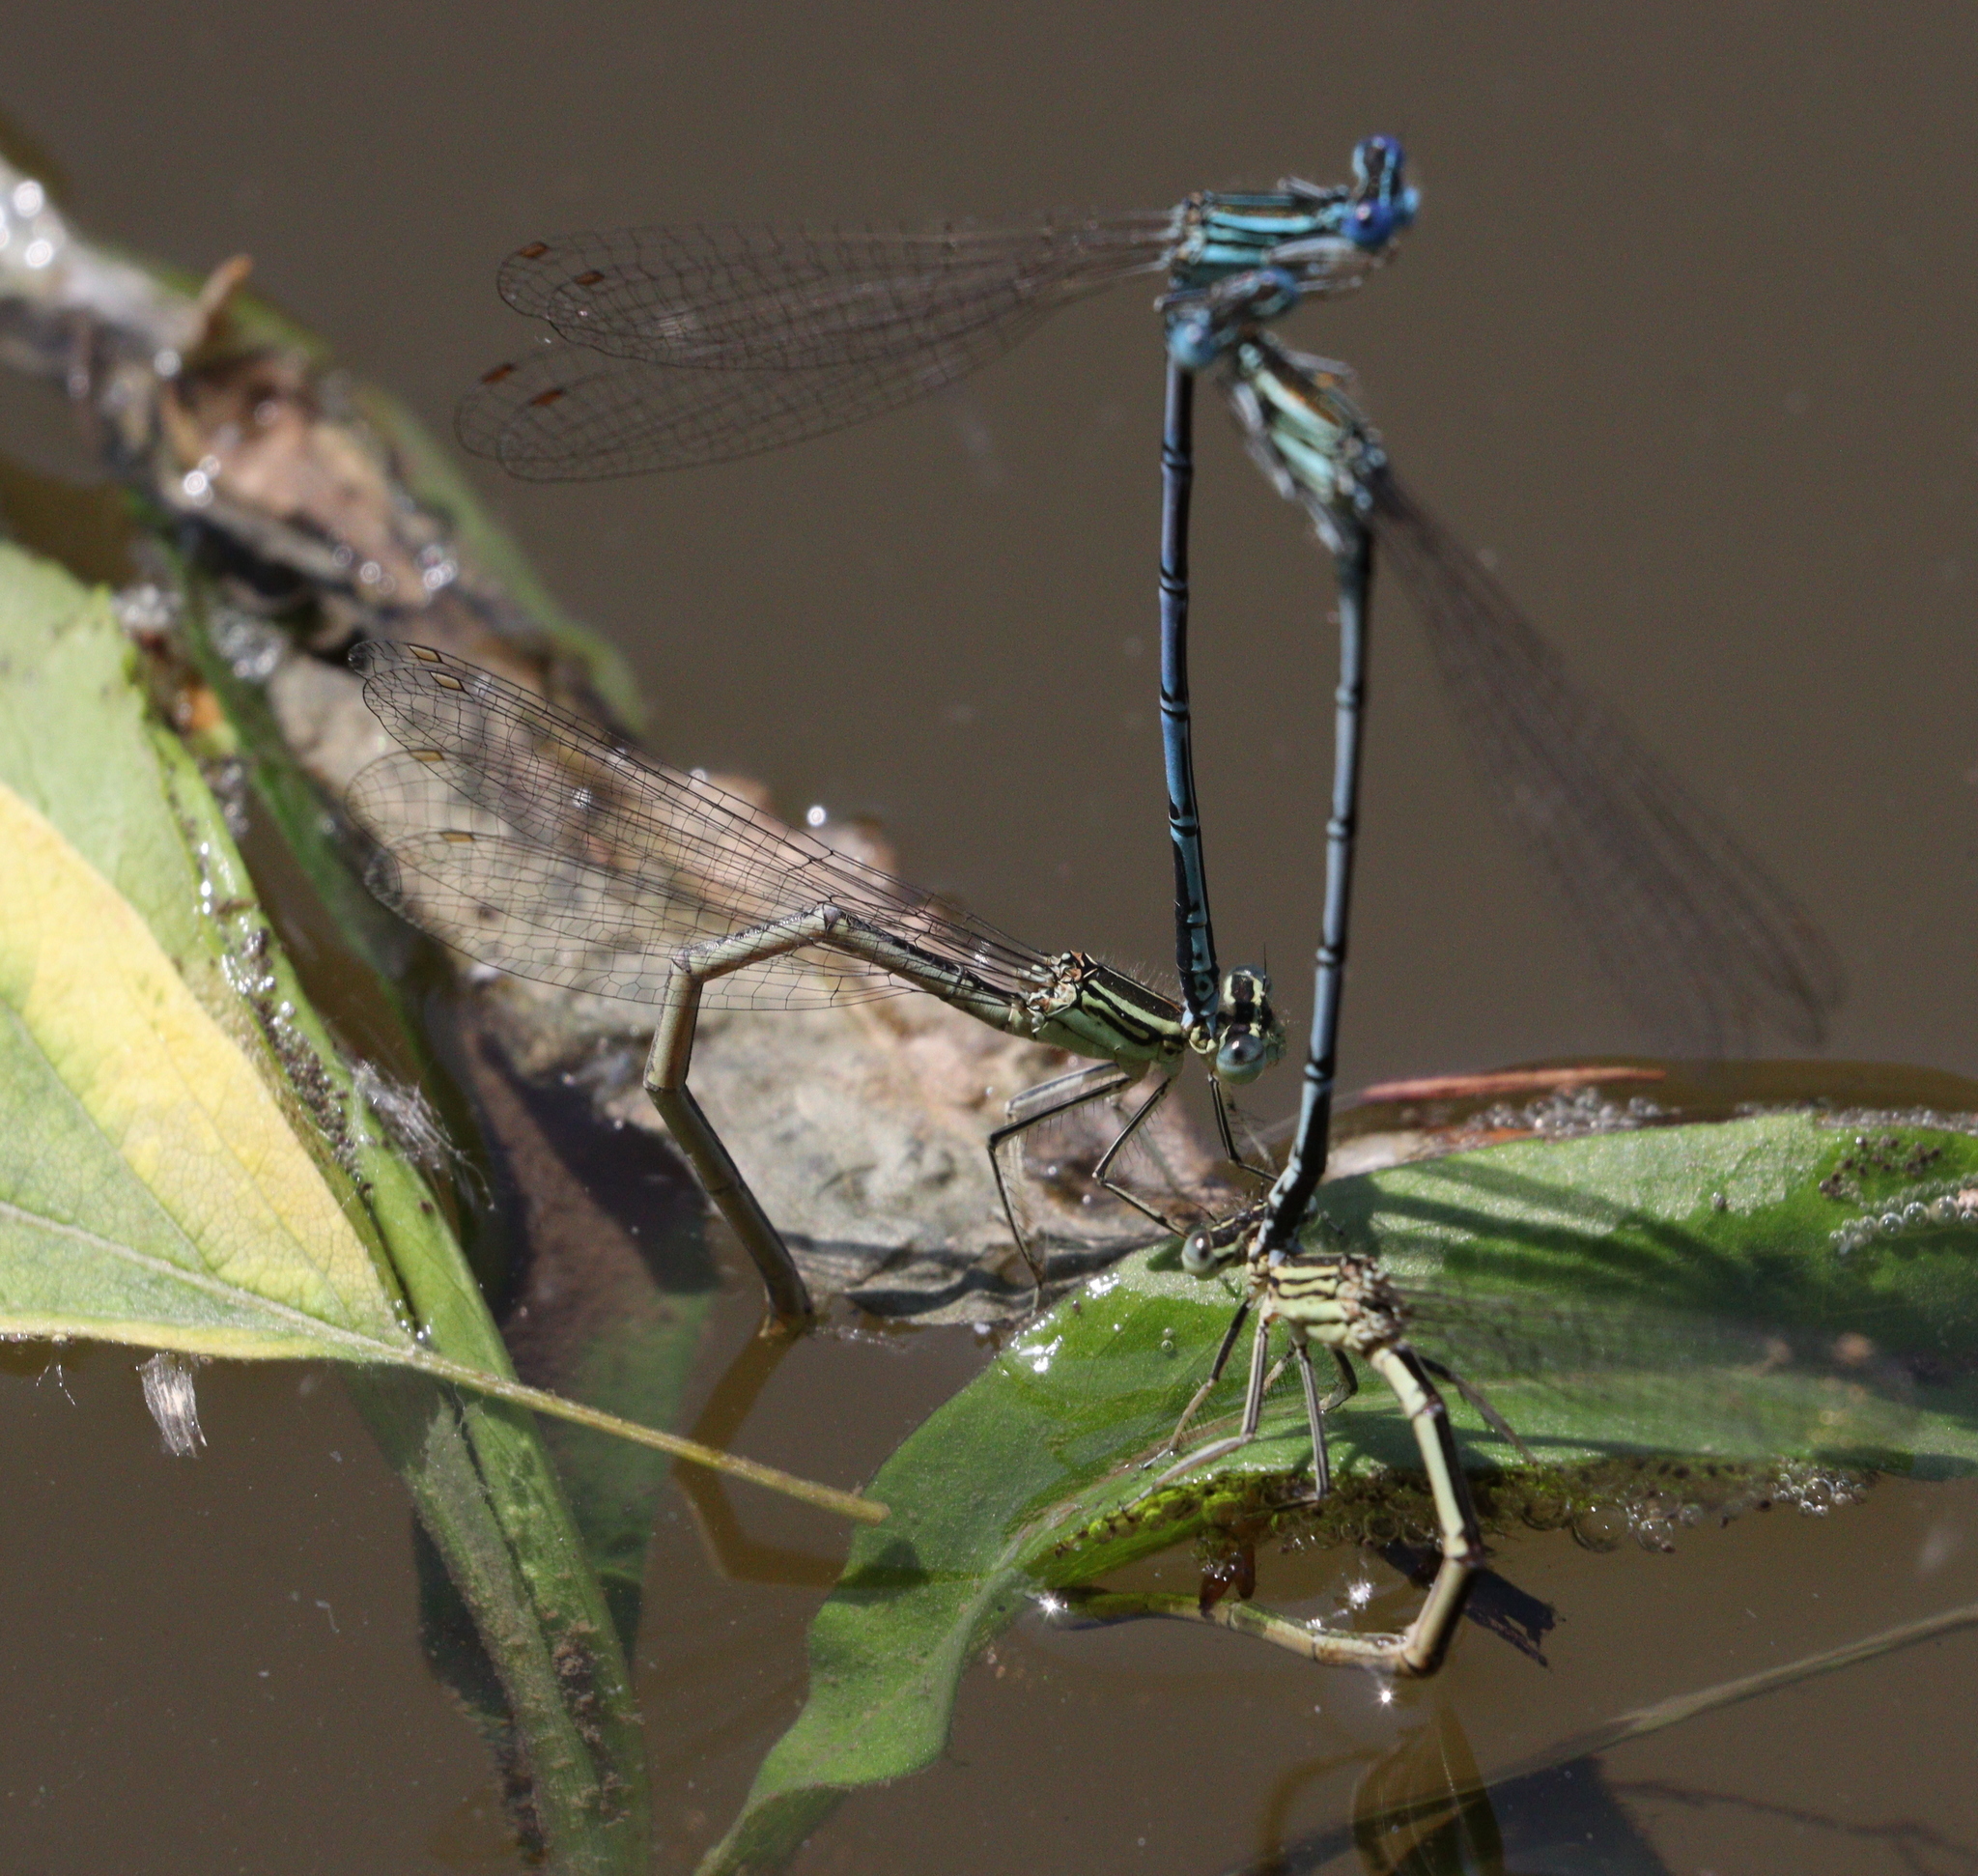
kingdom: Animalia
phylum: Arthropoda
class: Insecta
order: Odonata
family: Platycnemididae
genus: Platycnemis
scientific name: Platycnemis pennipes
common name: White-legged damselfly
